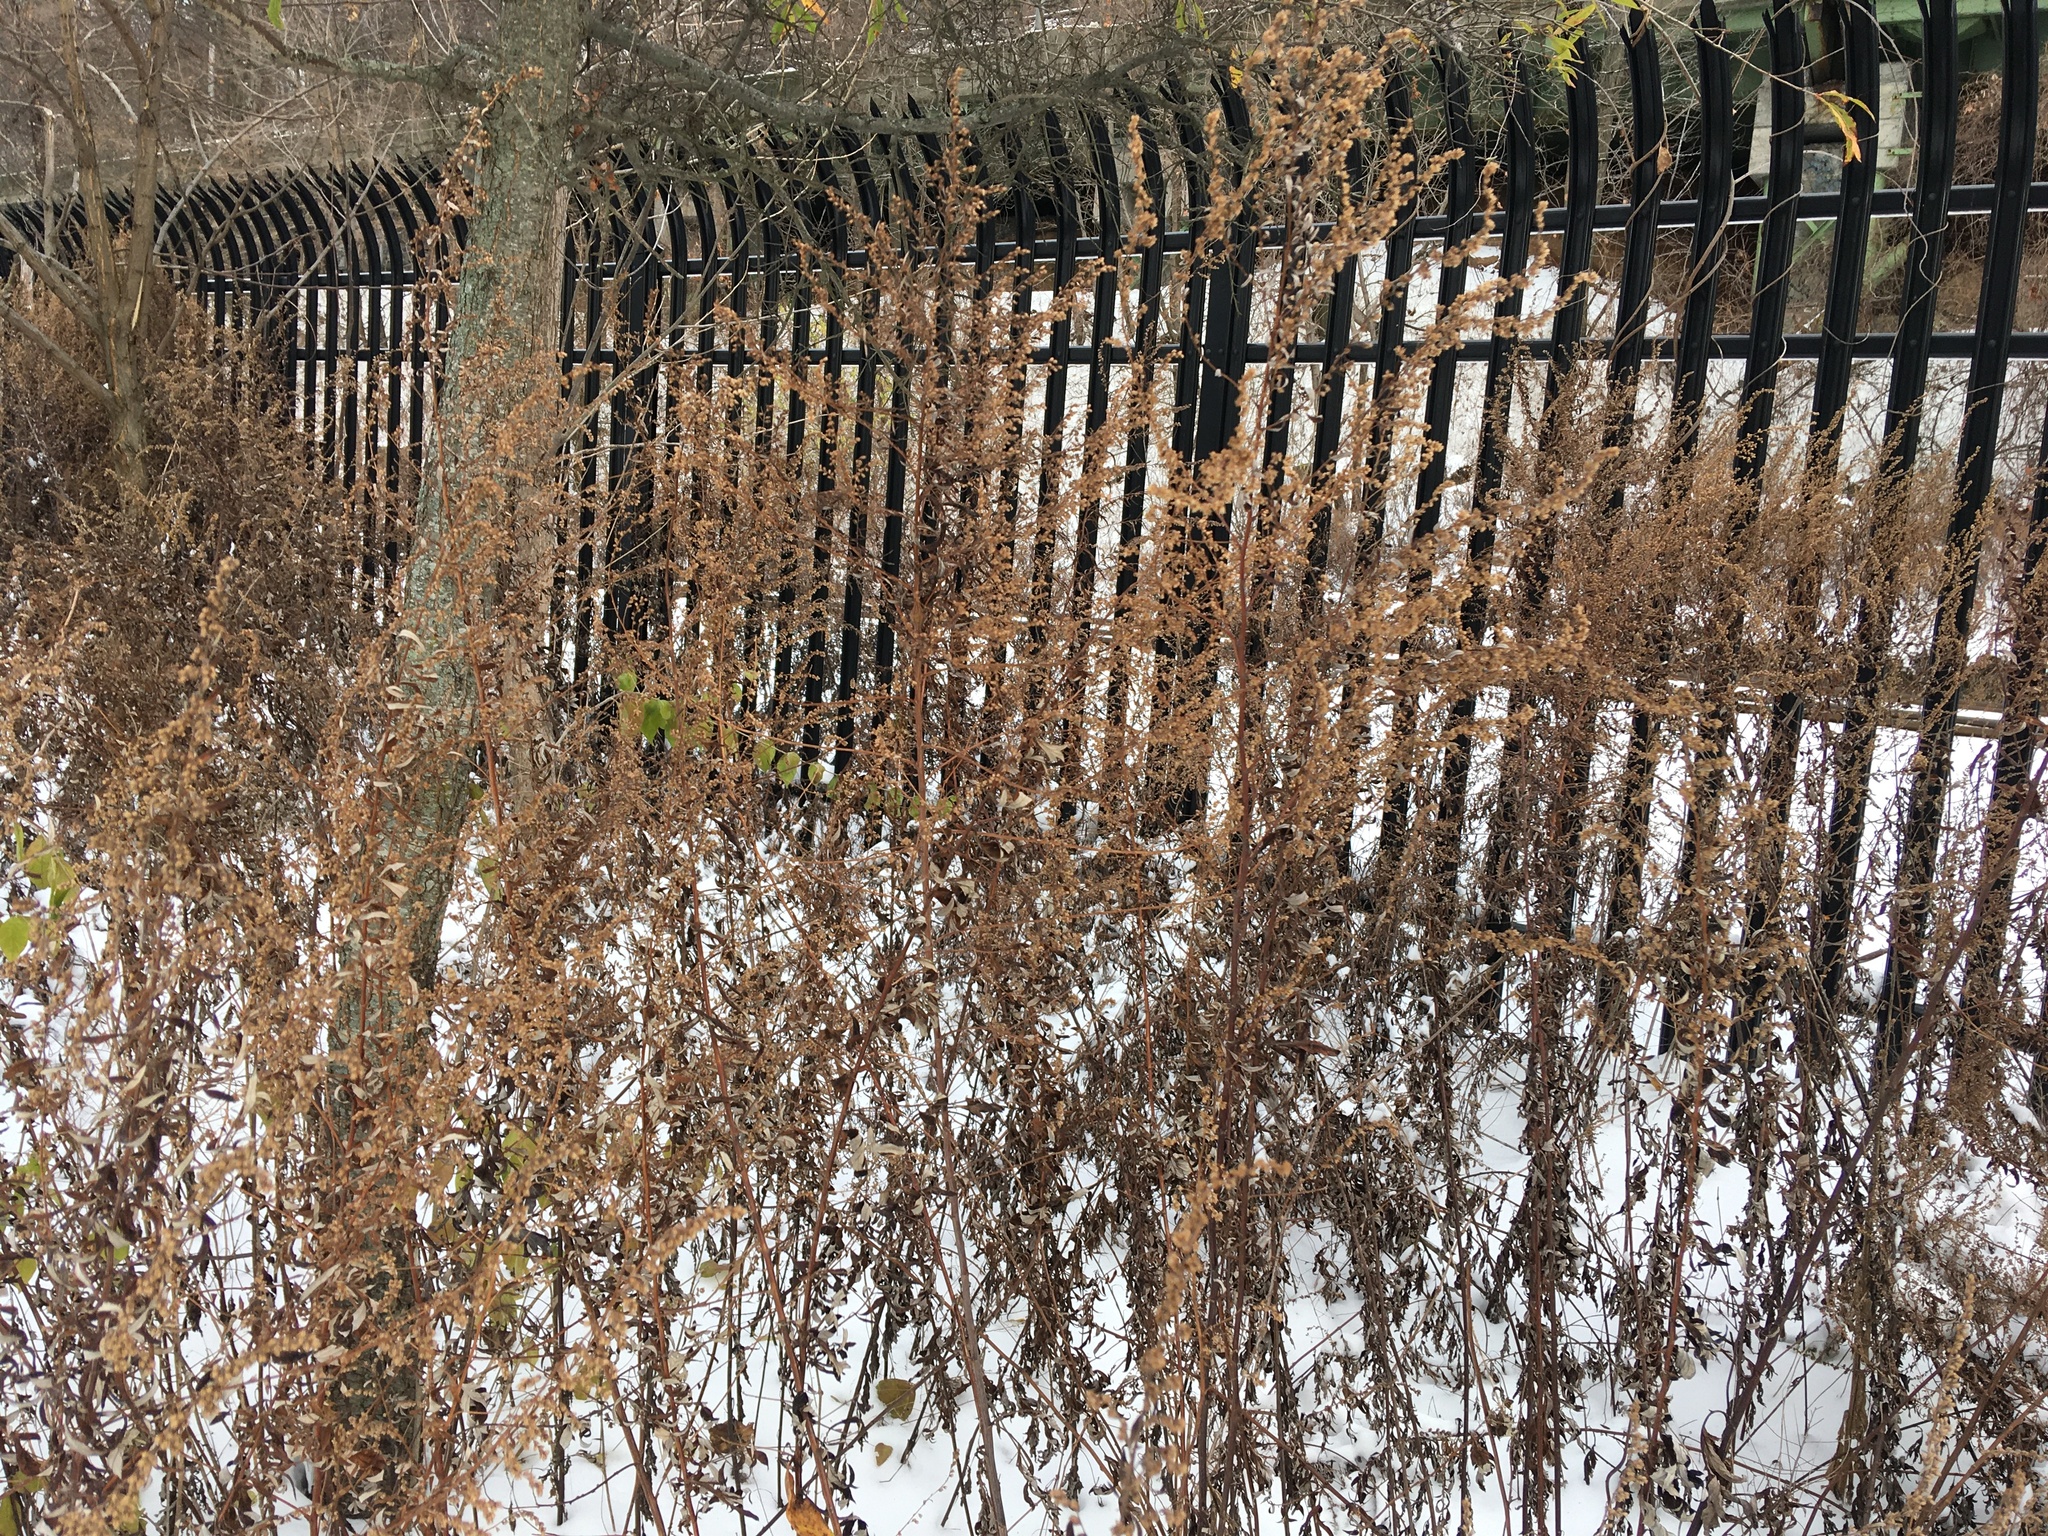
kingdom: Plantae
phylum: Tracheophyta
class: Magnoliopsida
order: Asterales
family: Asteraceae
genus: Artemisia
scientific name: Artemisia vulgaris
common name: Mugwort
